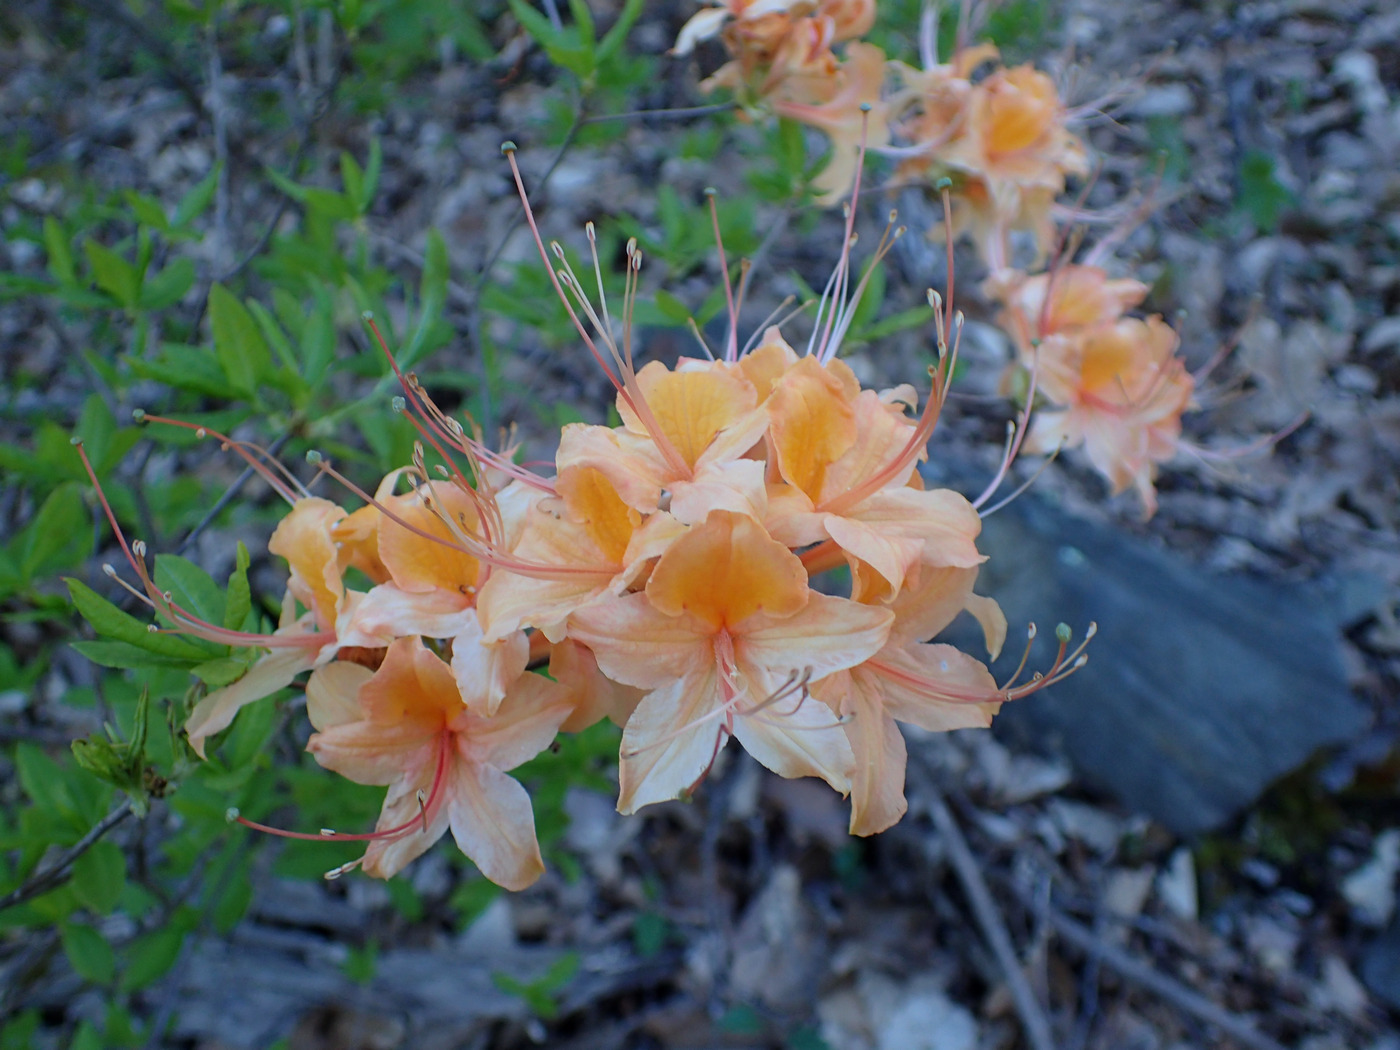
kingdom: Plantae
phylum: Tracheophyta
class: Magnoliopsida
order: Ericales
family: Ericaceae
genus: Rhododendron
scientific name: Rhododendron calendulaceum
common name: Flame azalea
